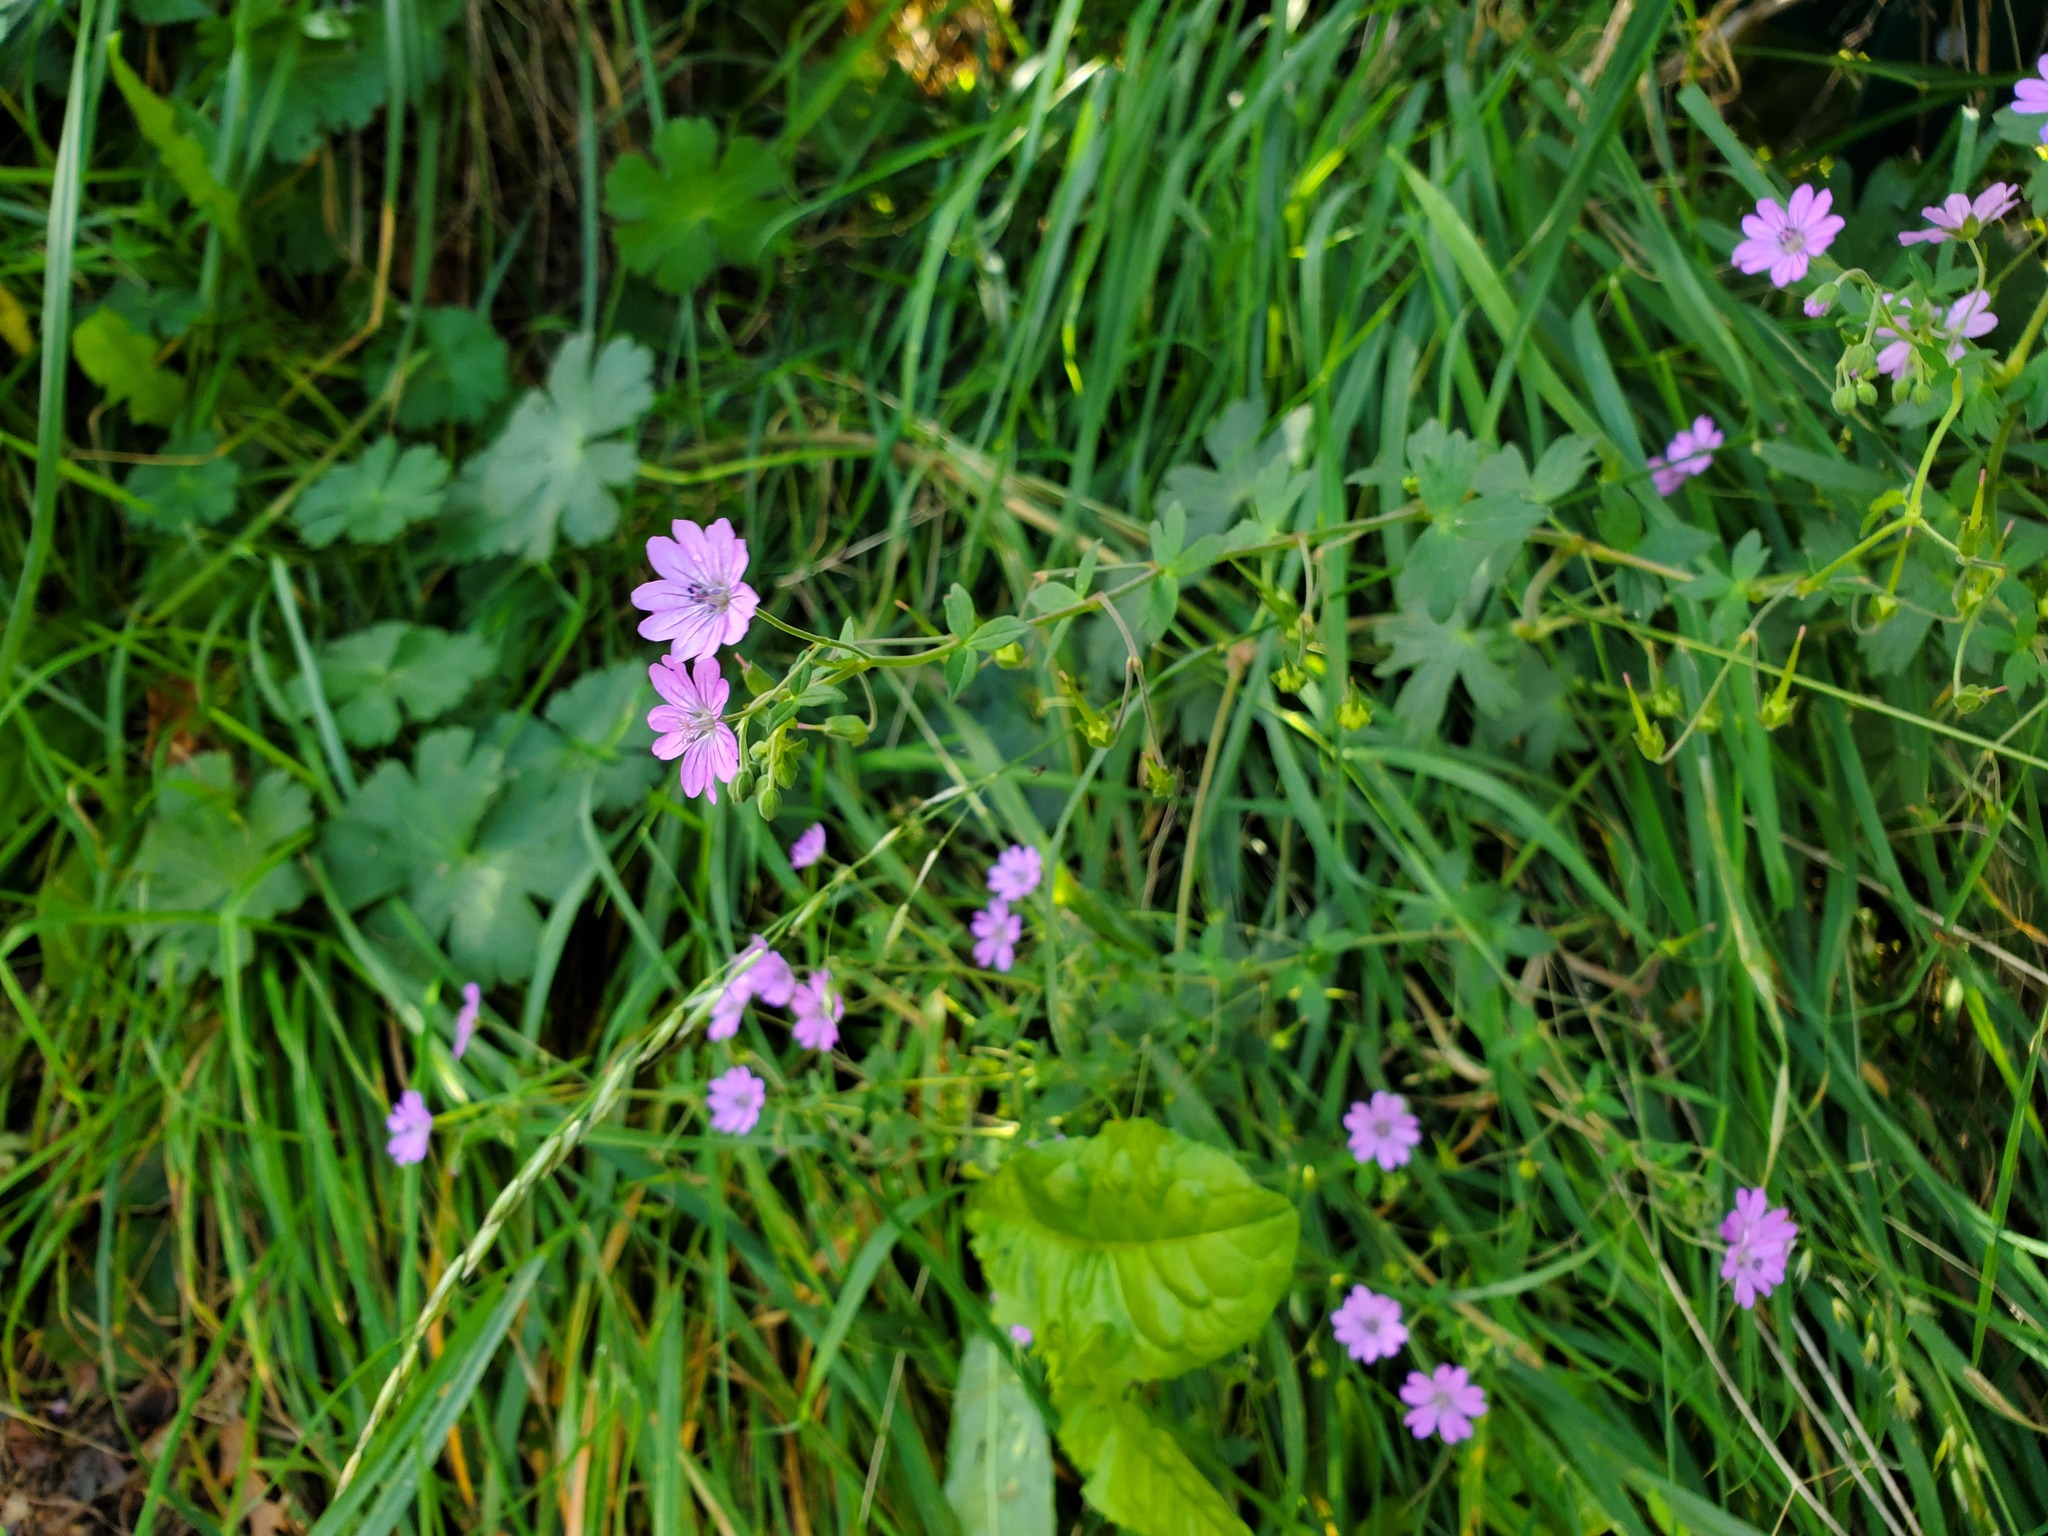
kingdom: Plantae
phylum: Tracheophyta
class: Magnoliopsida
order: Geraniales
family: Geraniaceae
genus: Geranium
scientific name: Geranium pyrenaicum
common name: Hedgerow crane's-bill
